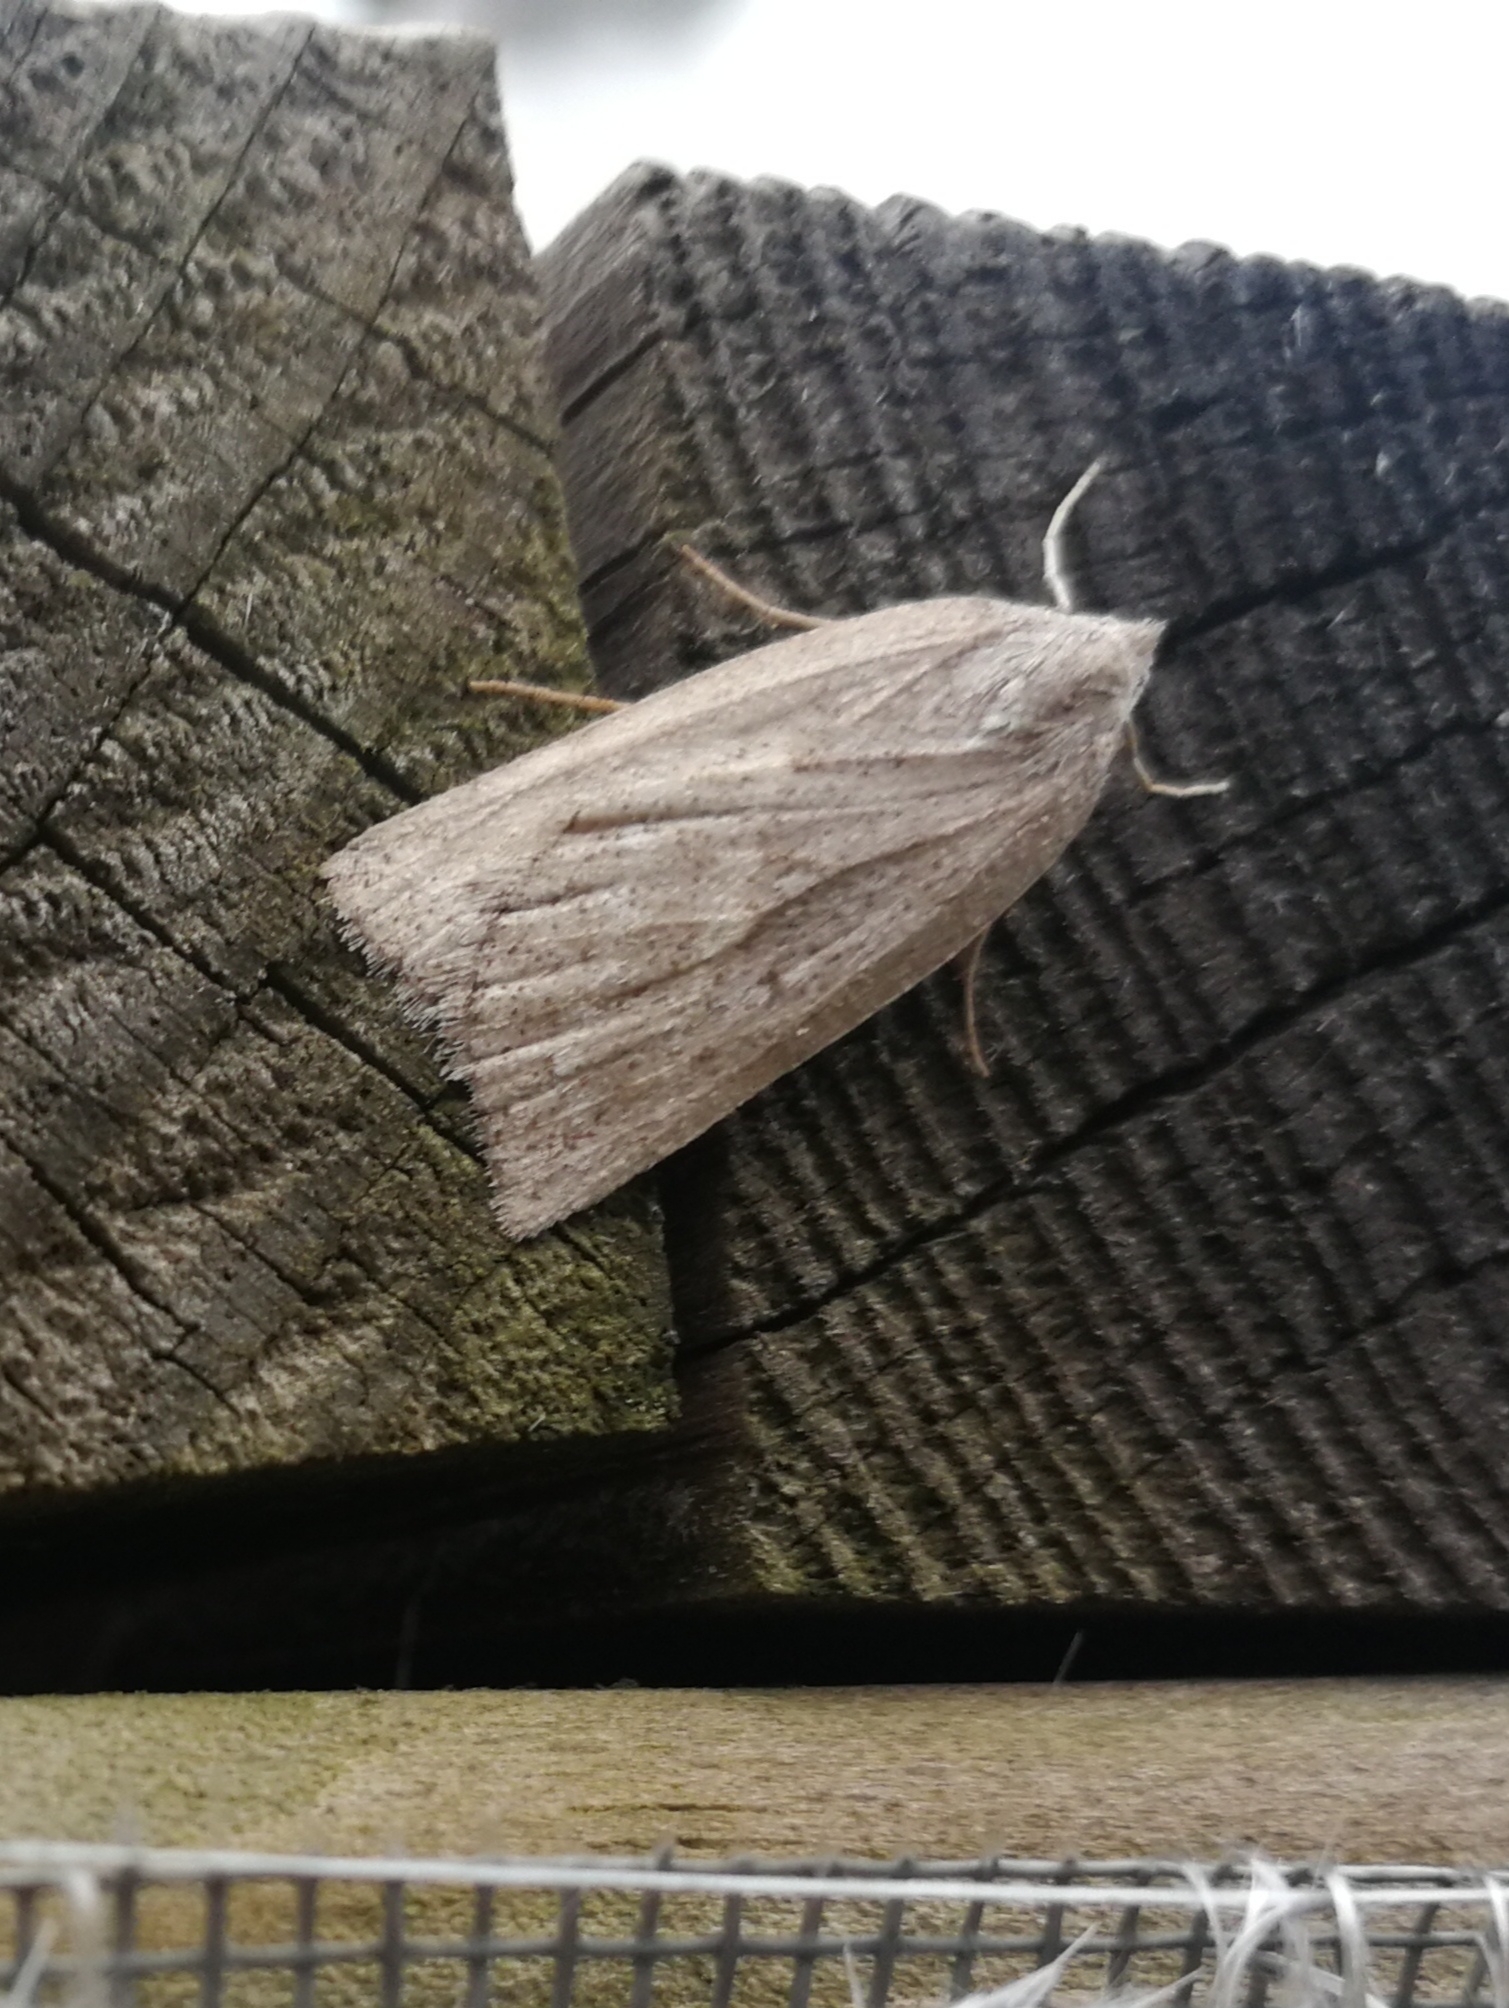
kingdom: Animalia
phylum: Arthropoda
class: Insecta
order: Lepidoptera
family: Geometridae
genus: Chemerina
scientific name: Chemerina caliginearia
